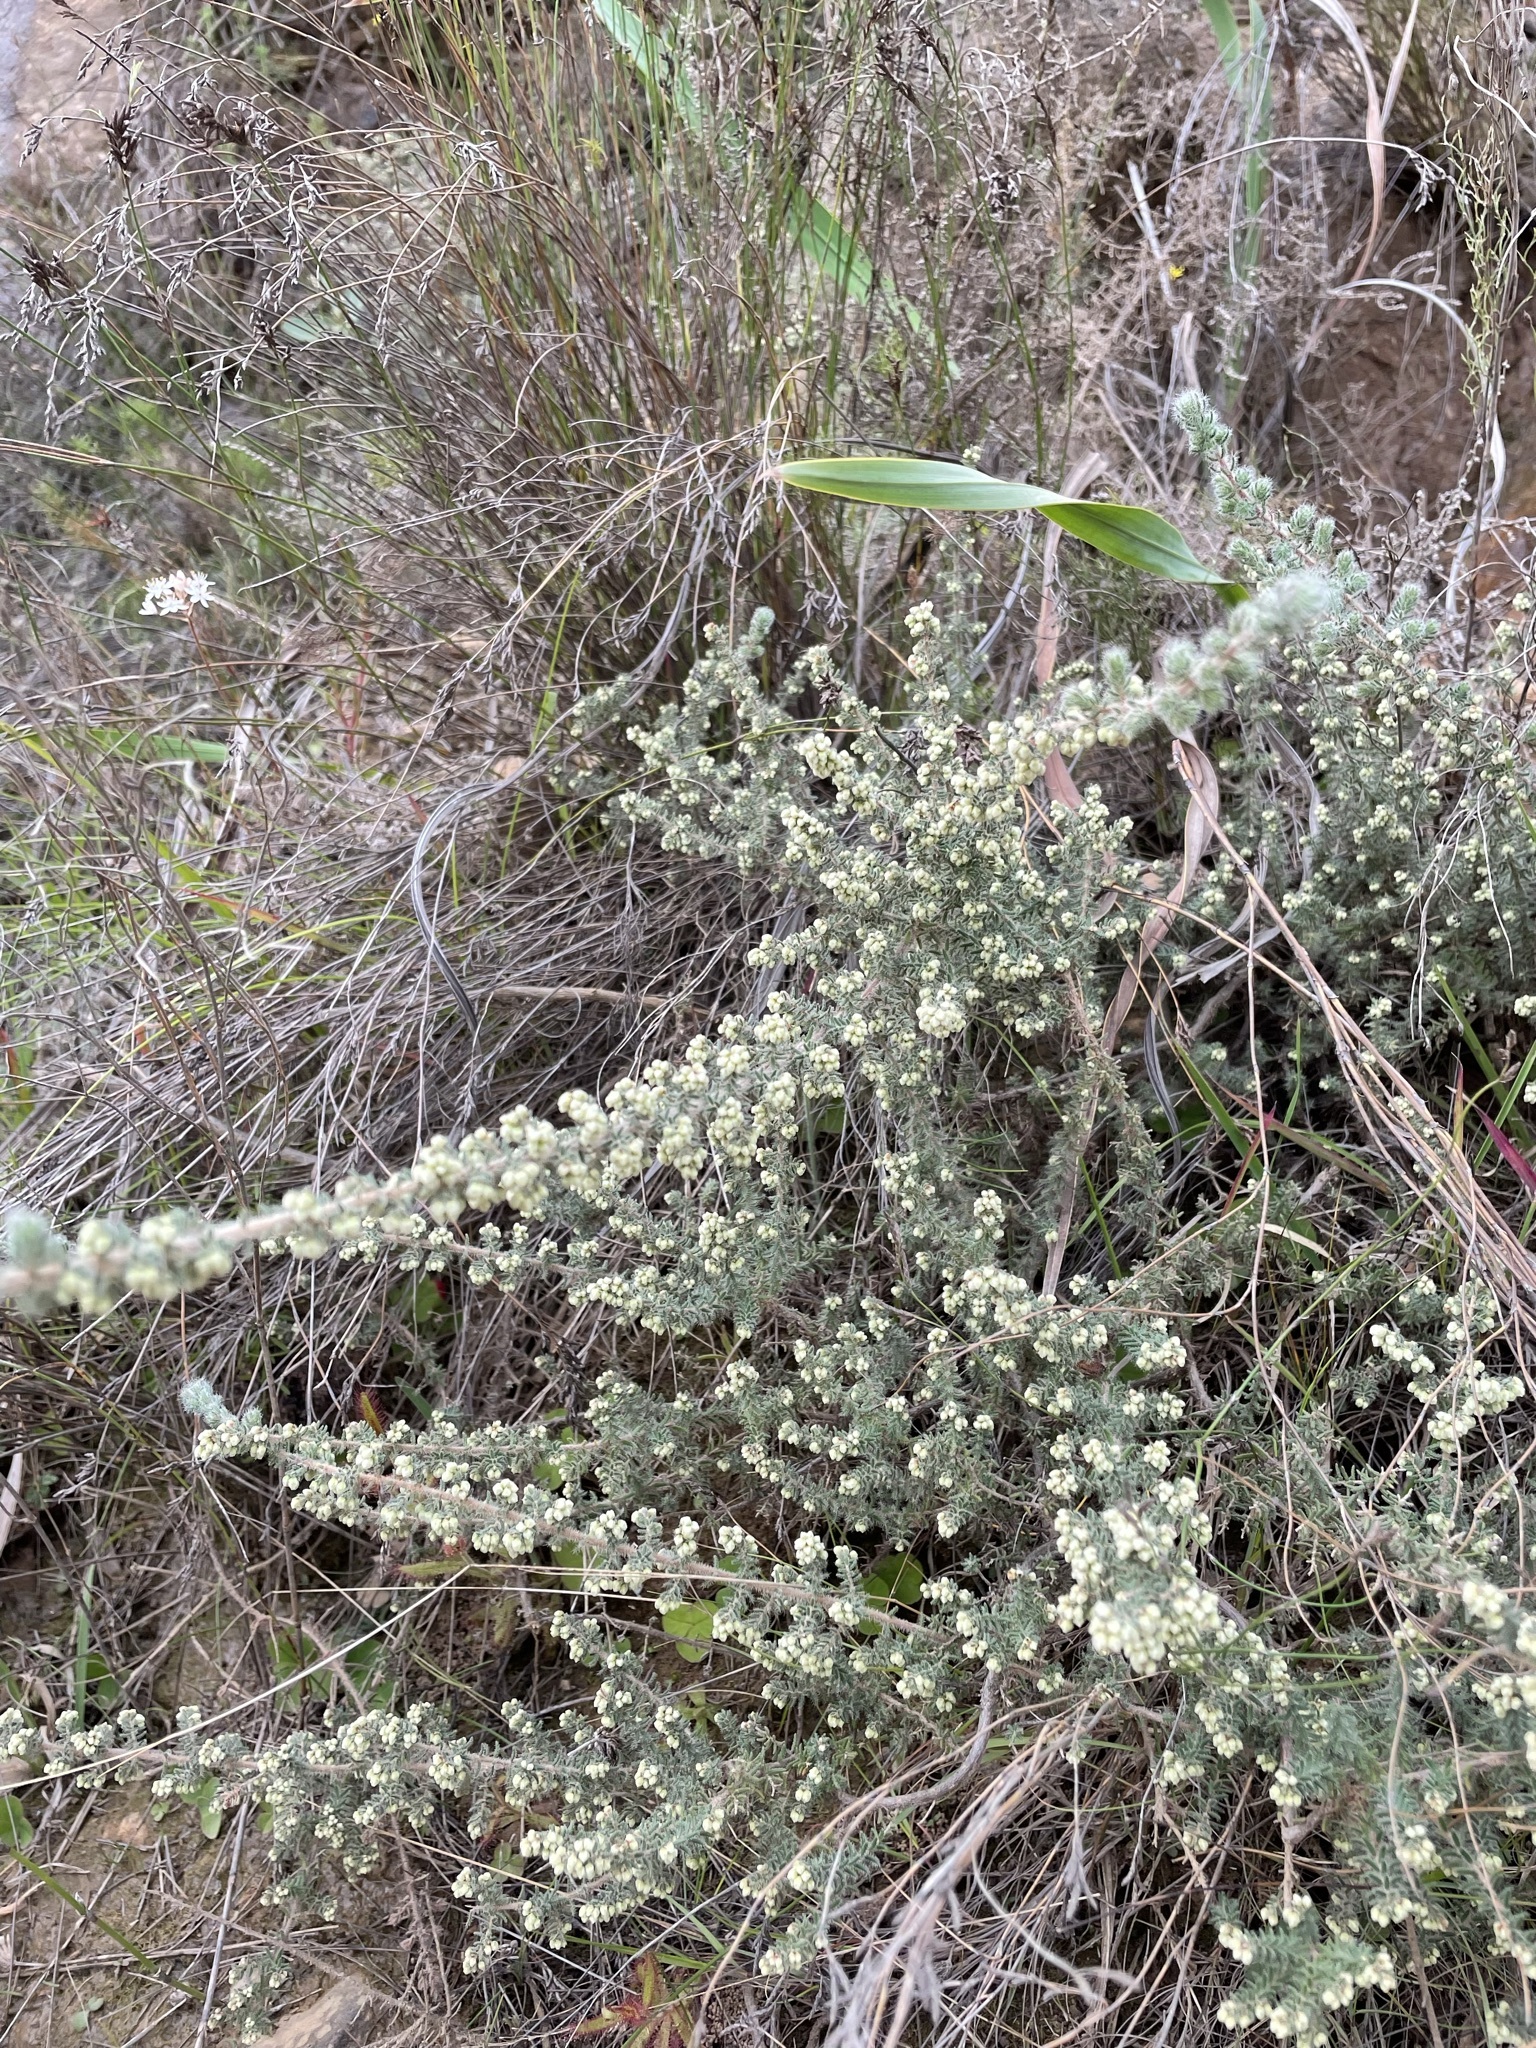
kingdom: Plantae
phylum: Tracheophyta
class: Magnoliopsida
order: Ericales
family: Ericaceae
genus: Erica
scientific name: Erica totta
